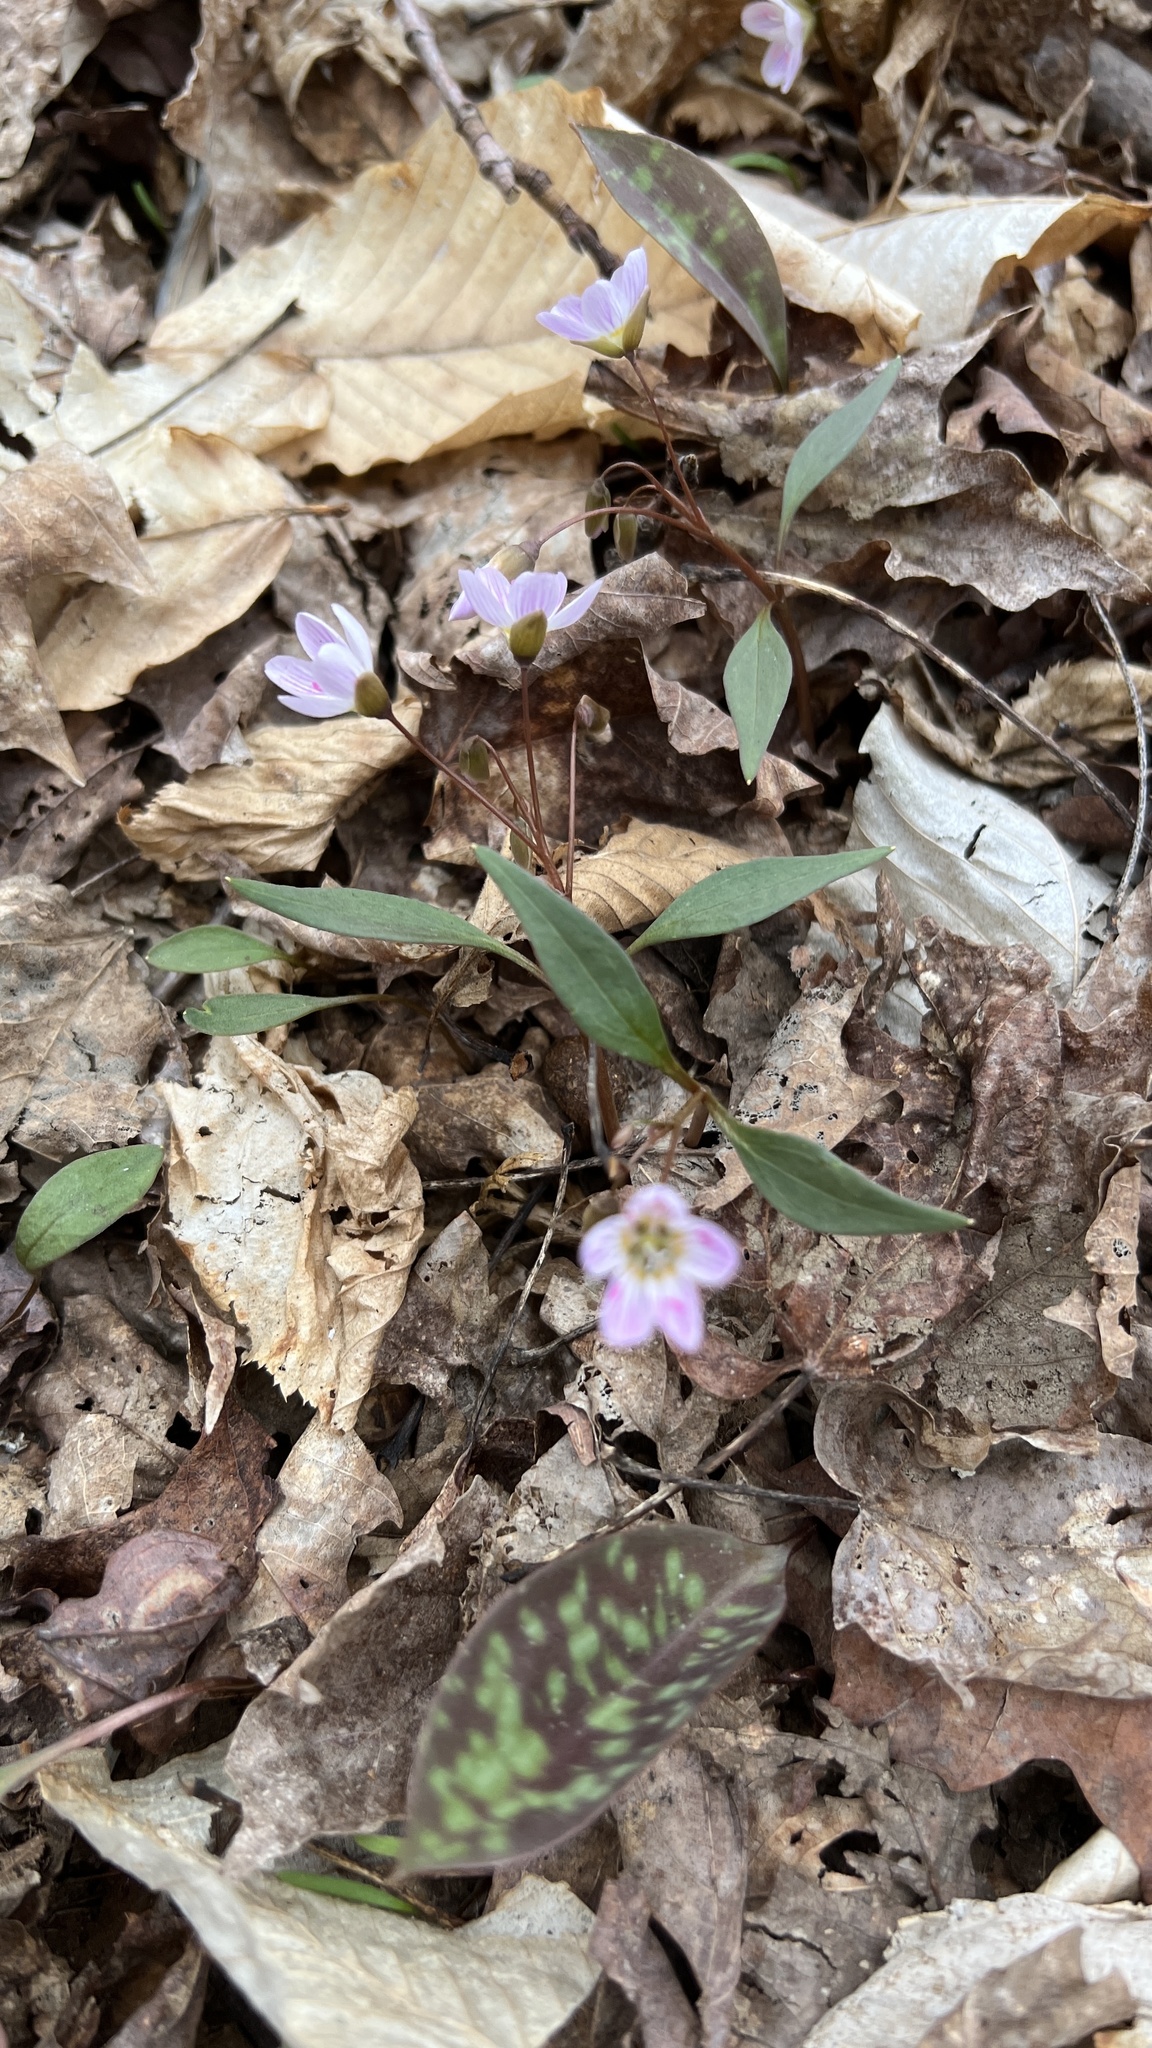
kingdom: Plantae
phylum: Tracheophyta
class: Magnoliopsida
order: Caryophyllales
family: Montiaceae
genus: Claytonia
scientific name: Claytonia caroliniana
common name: Carolina spring beauty
